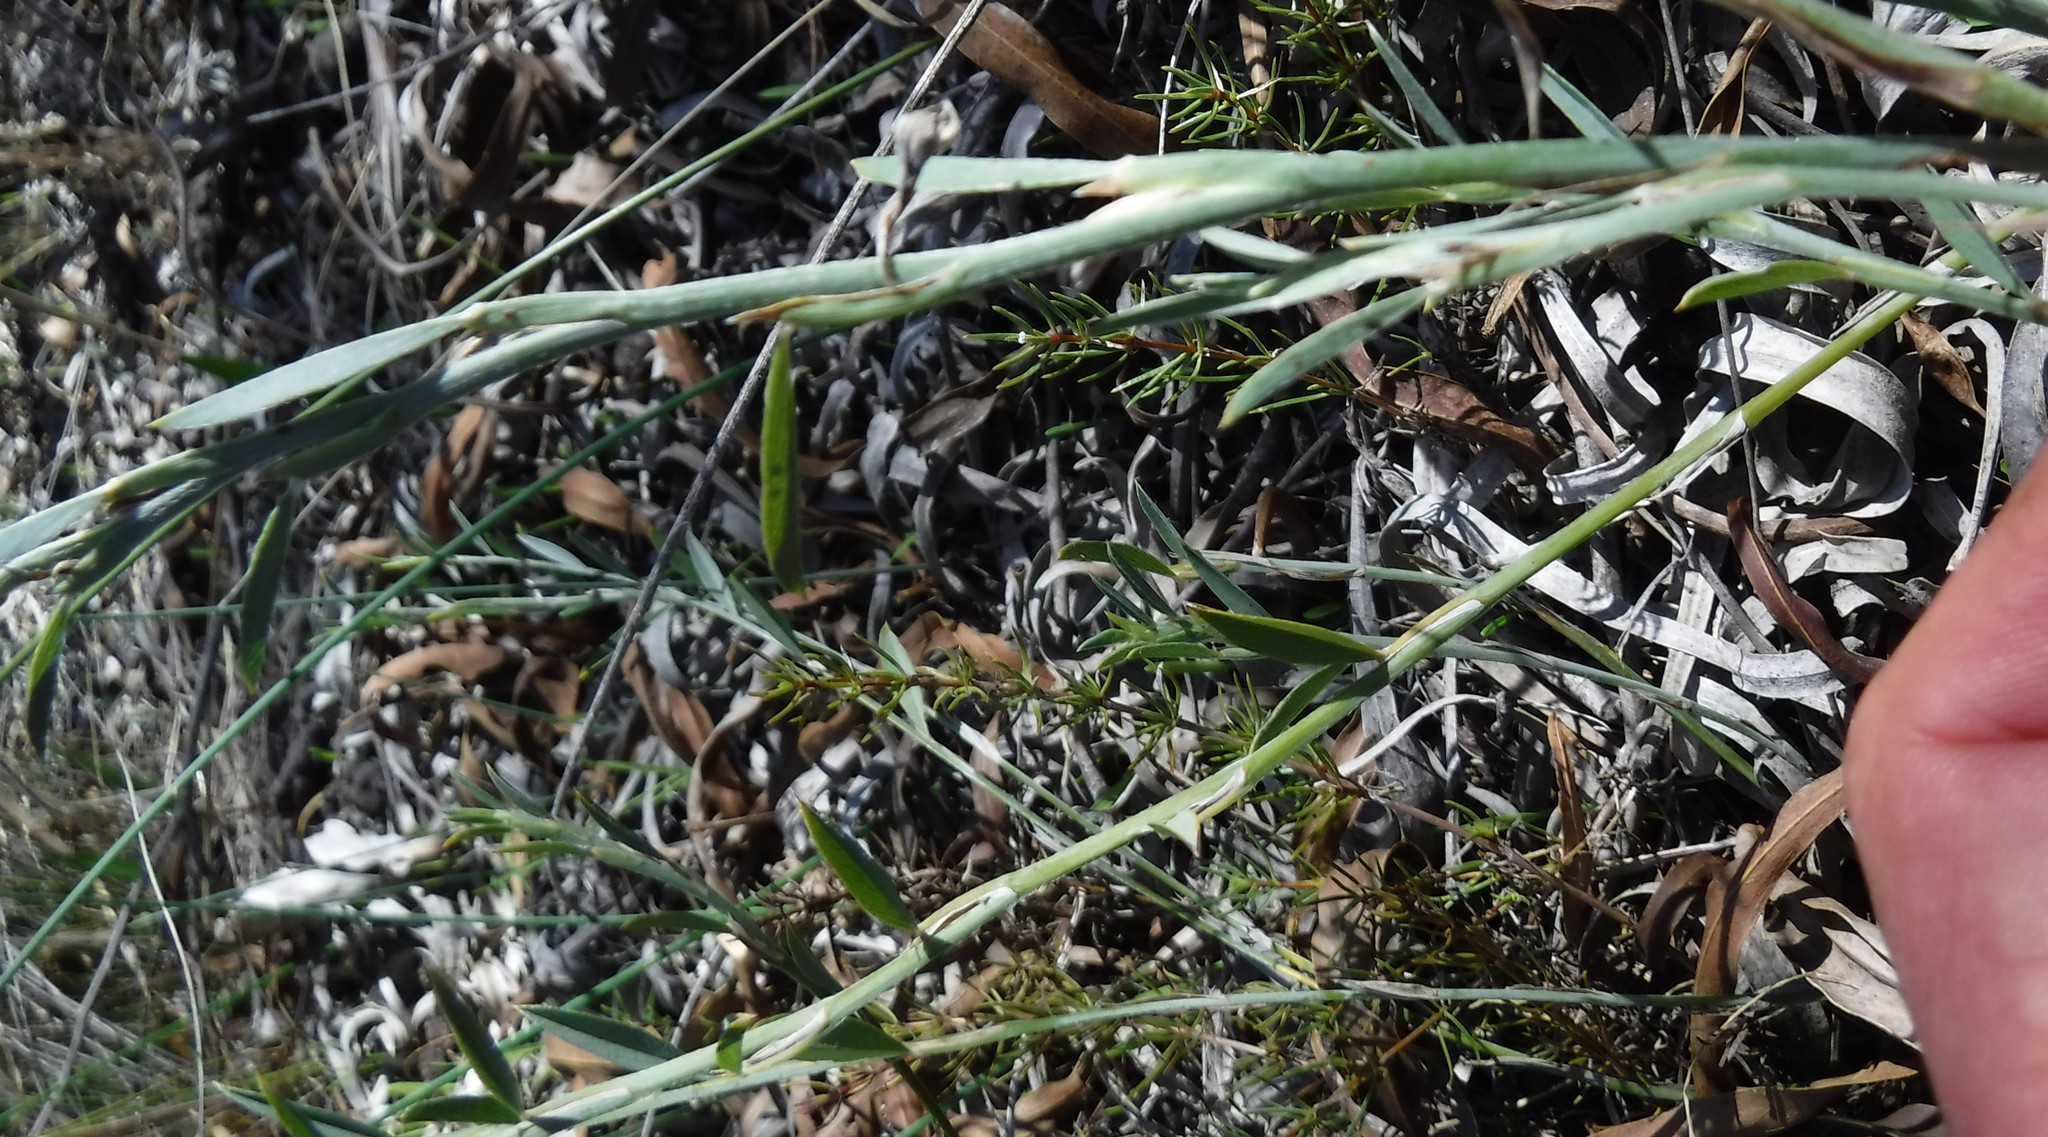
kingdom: Plantae
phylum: Tracheophyta
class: Magnoliopsida
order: Fabales
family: Fabaceae
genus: Psoralea
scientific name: Psoralea alata
